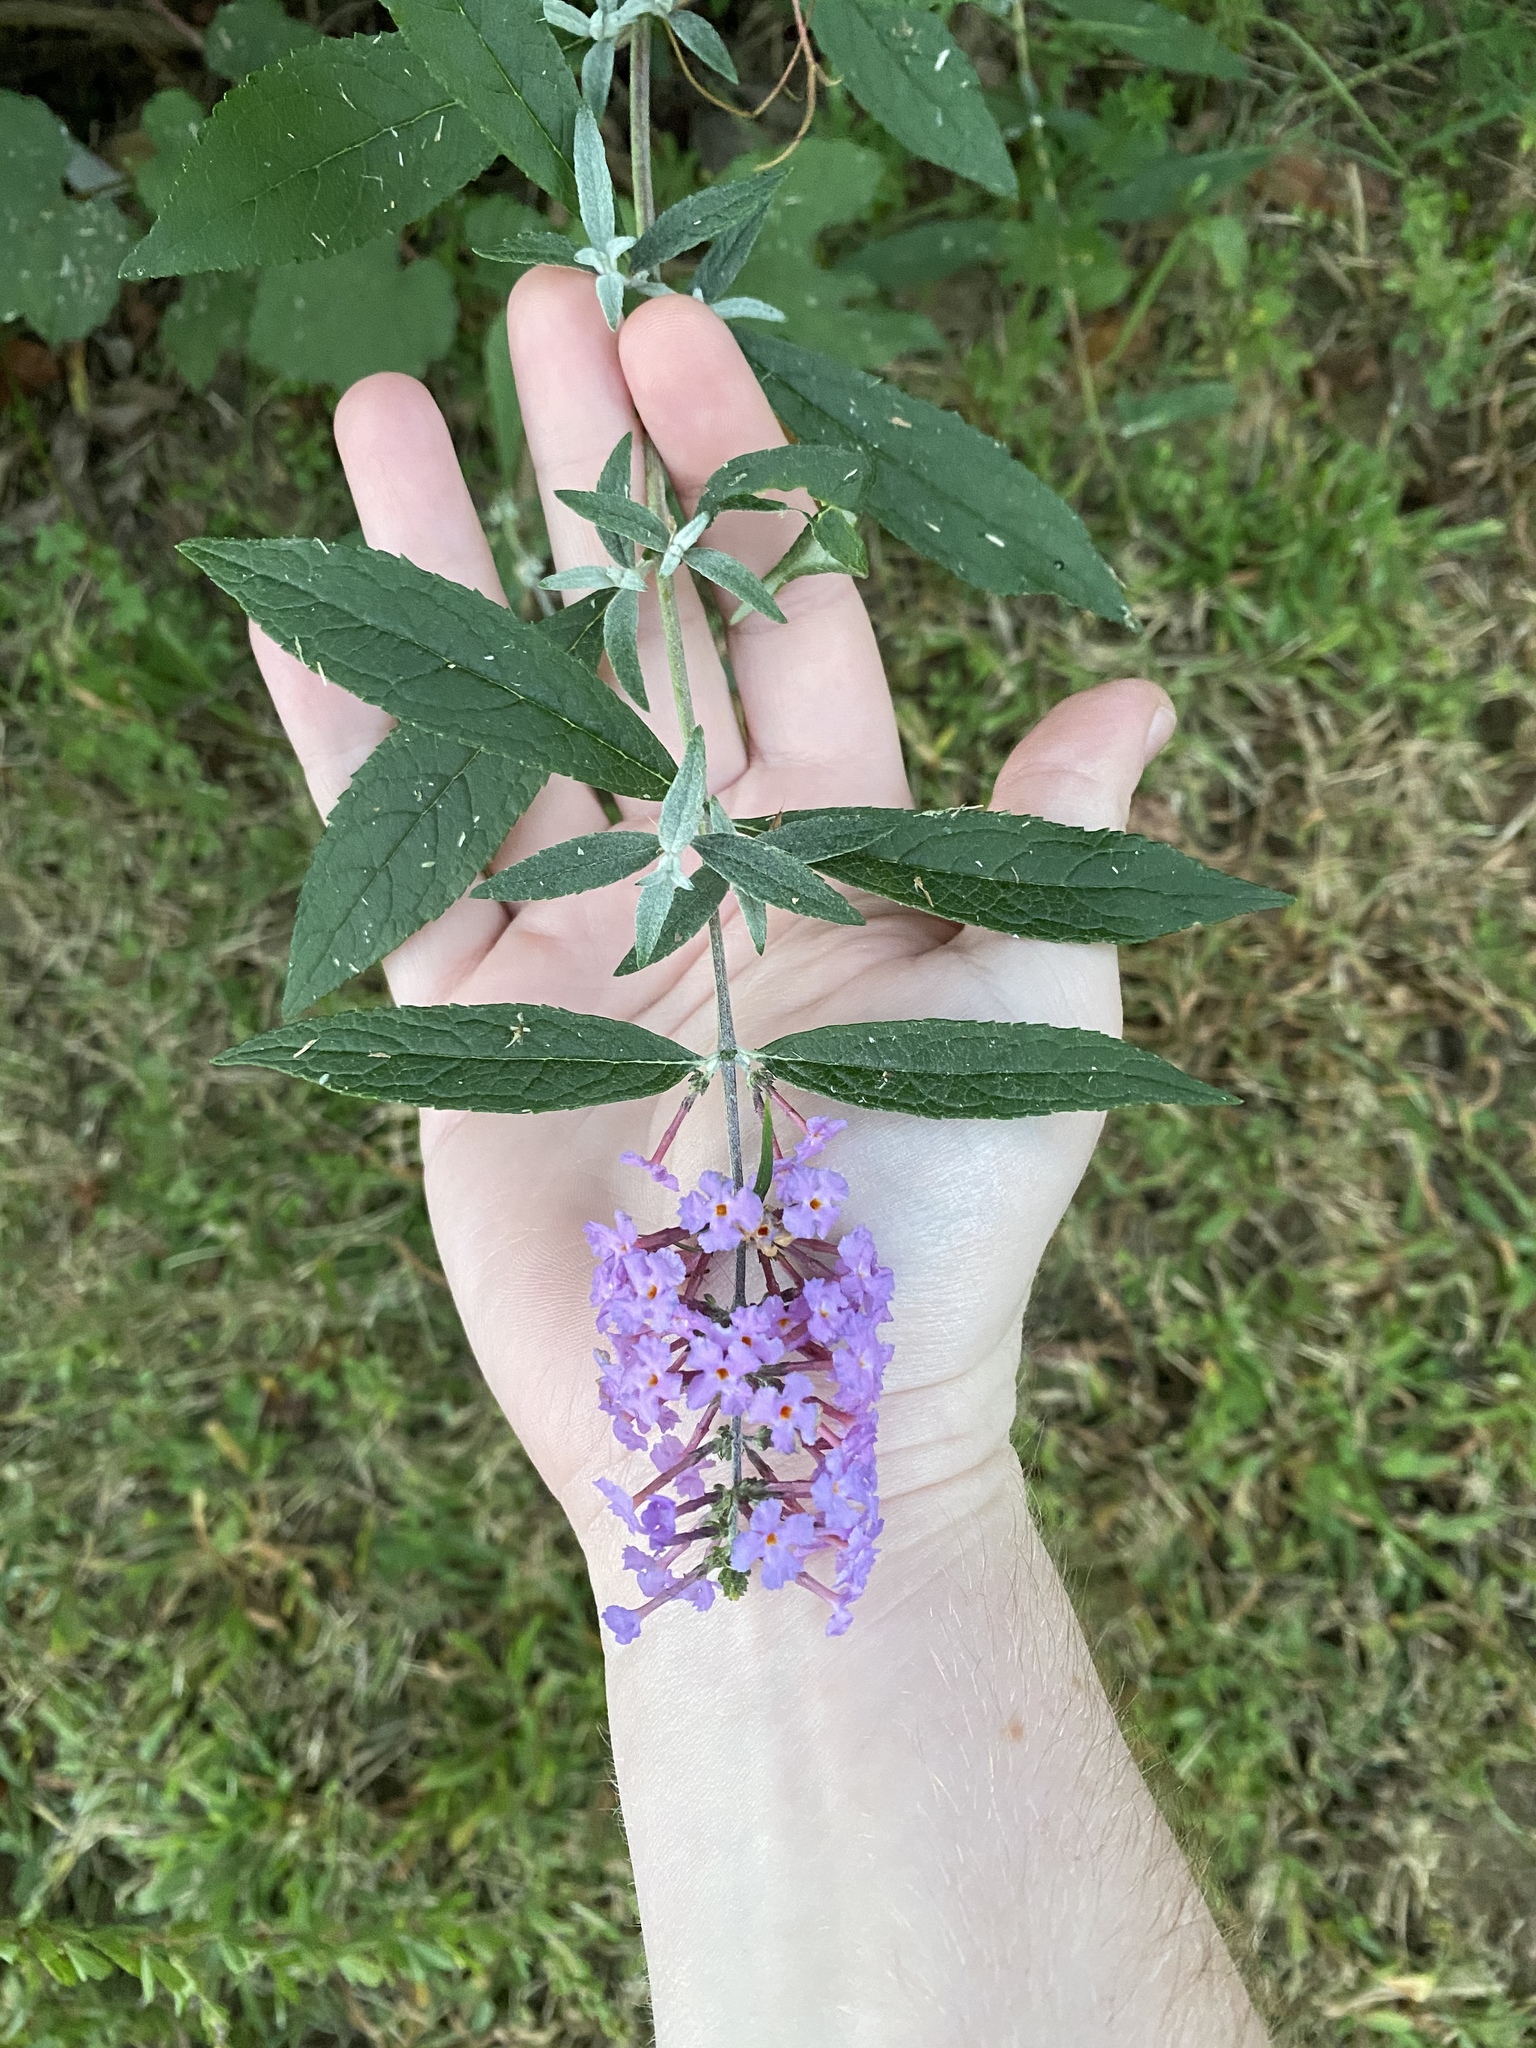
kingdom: Plantae
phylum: Tracheophyta
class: Magnoliopsida
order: Lamiales
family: Scrophulariaceae
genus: Buddleja
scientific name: Buddleja davidii
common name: Butterfly-bush
